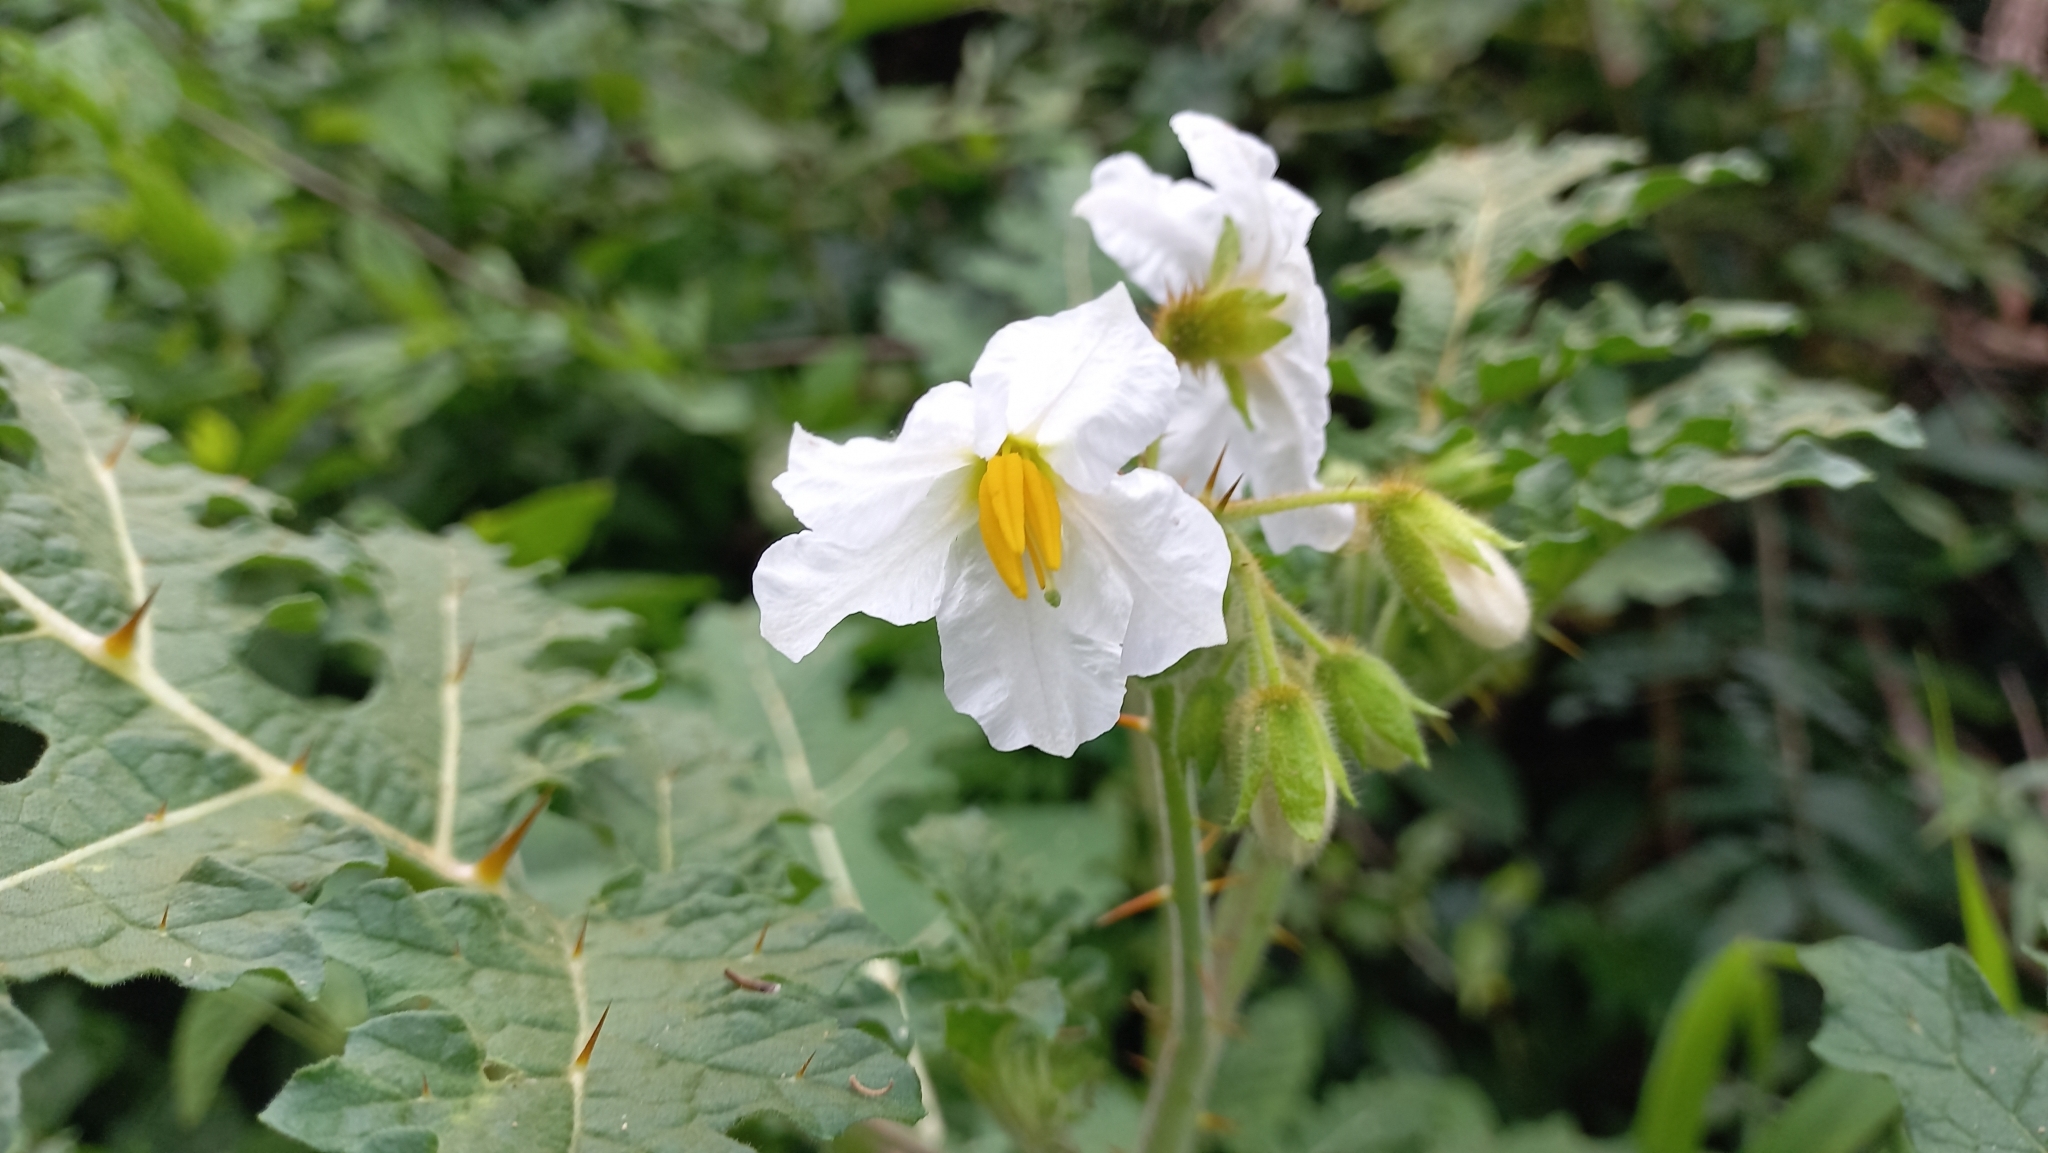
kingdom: Plantae
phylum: Tracheophyta
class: Magnoliopsida
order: Solanales
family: Solanaceae
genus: Solanum
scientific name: Solanum sisymbriifolium
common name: Red buffalo-bur
